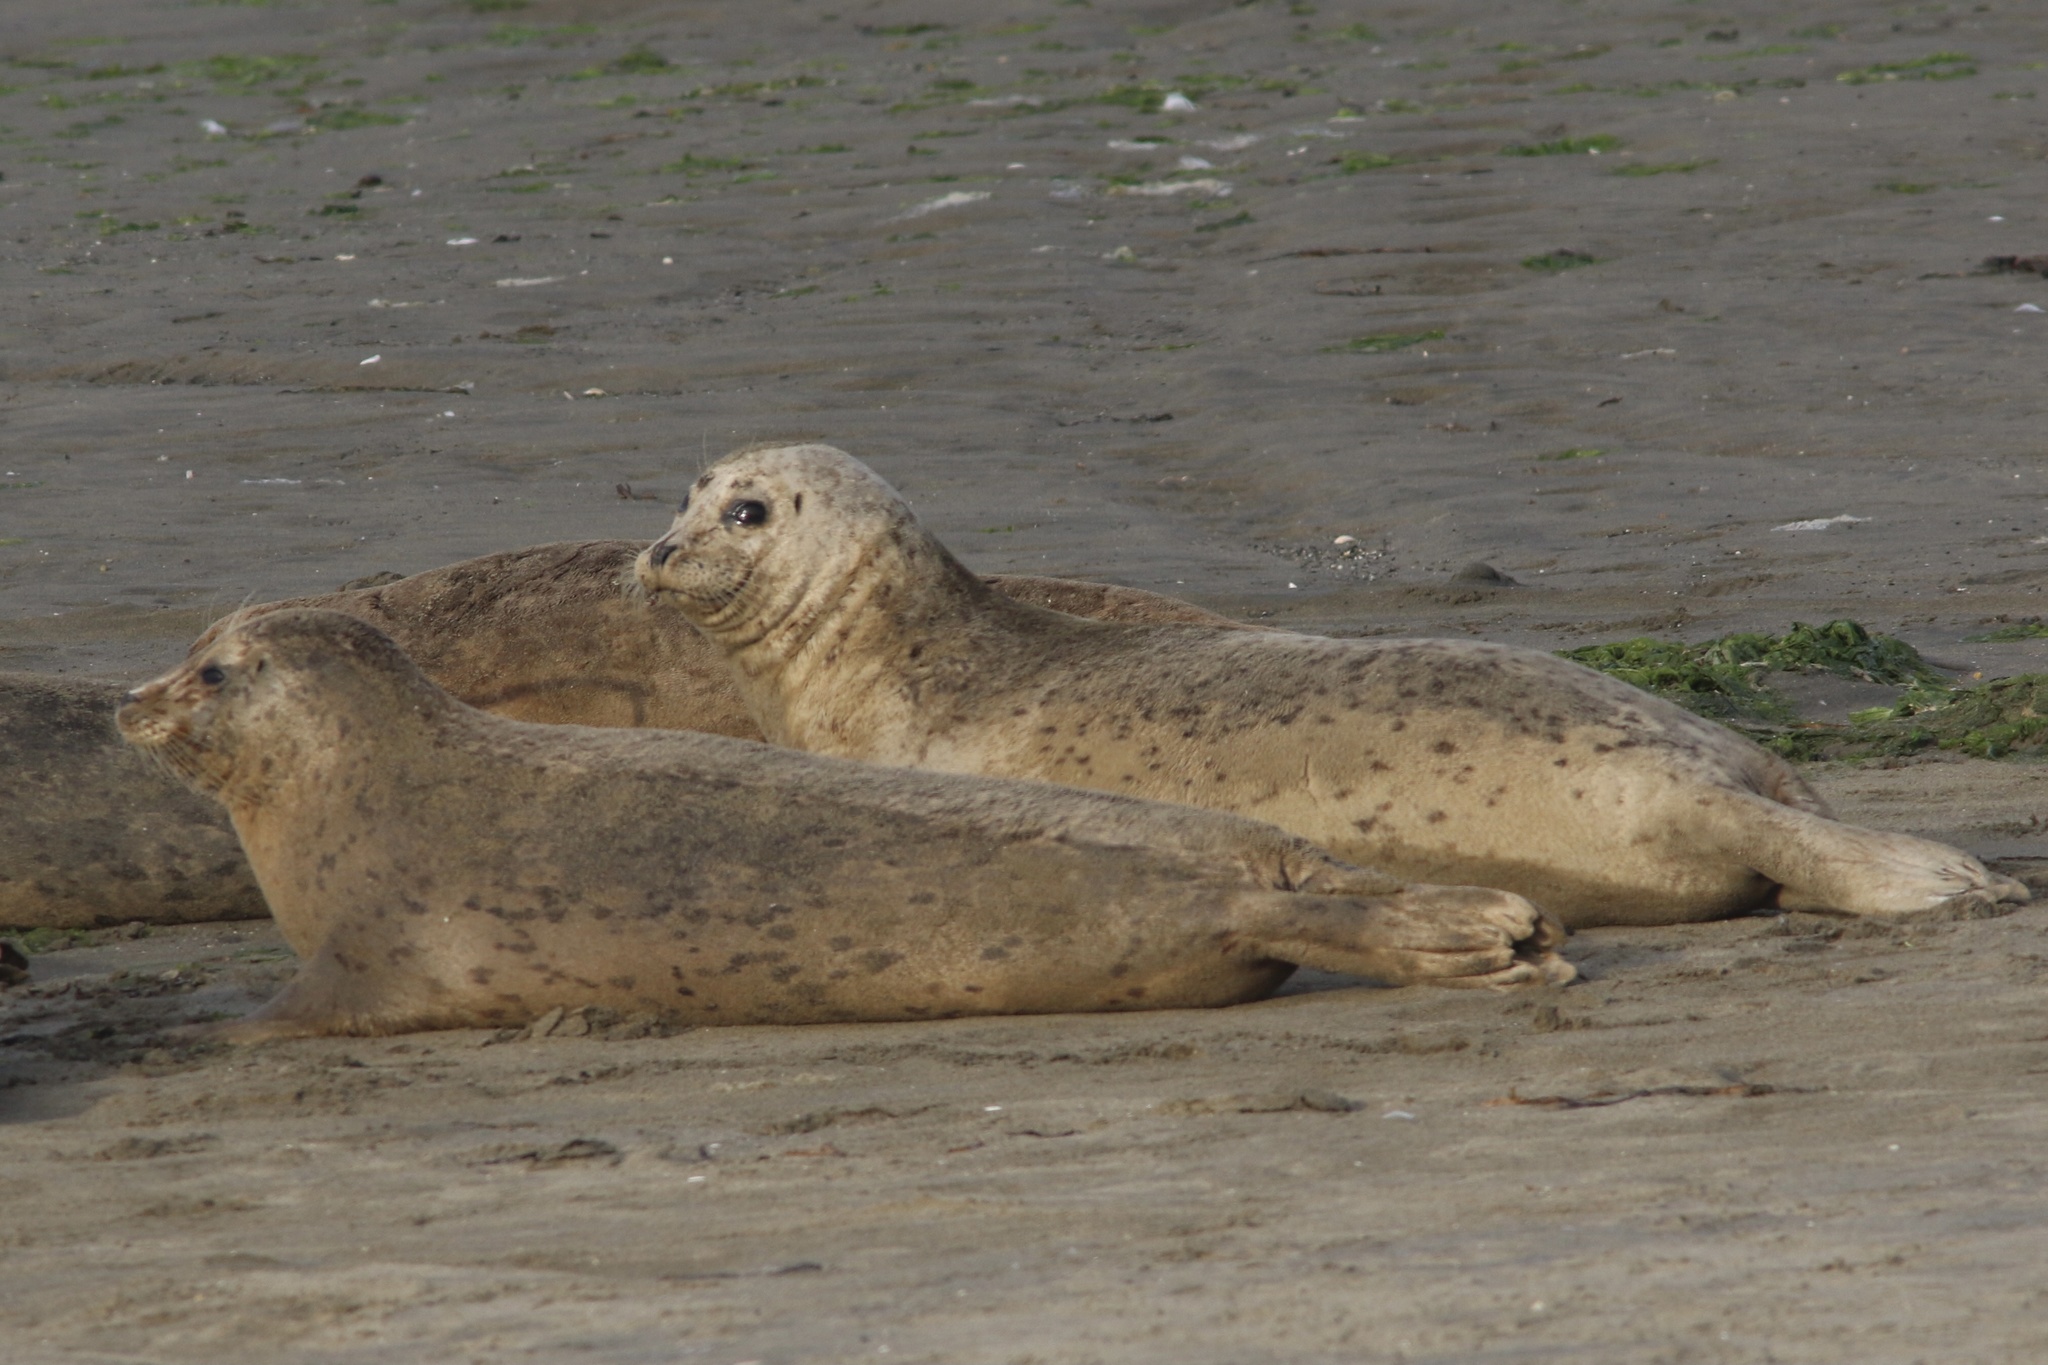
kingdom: Animalia
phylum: Chordata
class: Mammalia
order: Carnivora
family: Phocidae
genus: Phoca
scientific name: Phoca vitulina
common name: Harbor seal
